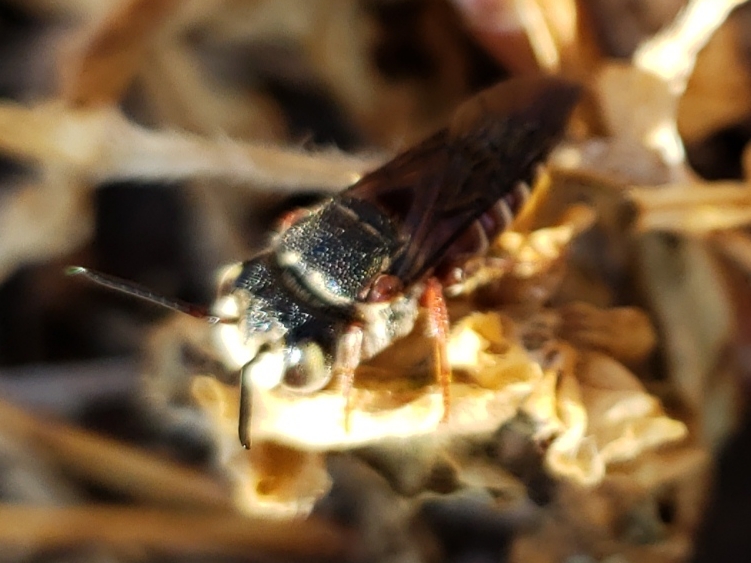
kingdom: Animalia
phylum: Arthropoda
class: Insecta
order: Hymenoptera
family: Megachilidae
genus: Coelioxys
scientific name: Coelioxys slossoni
